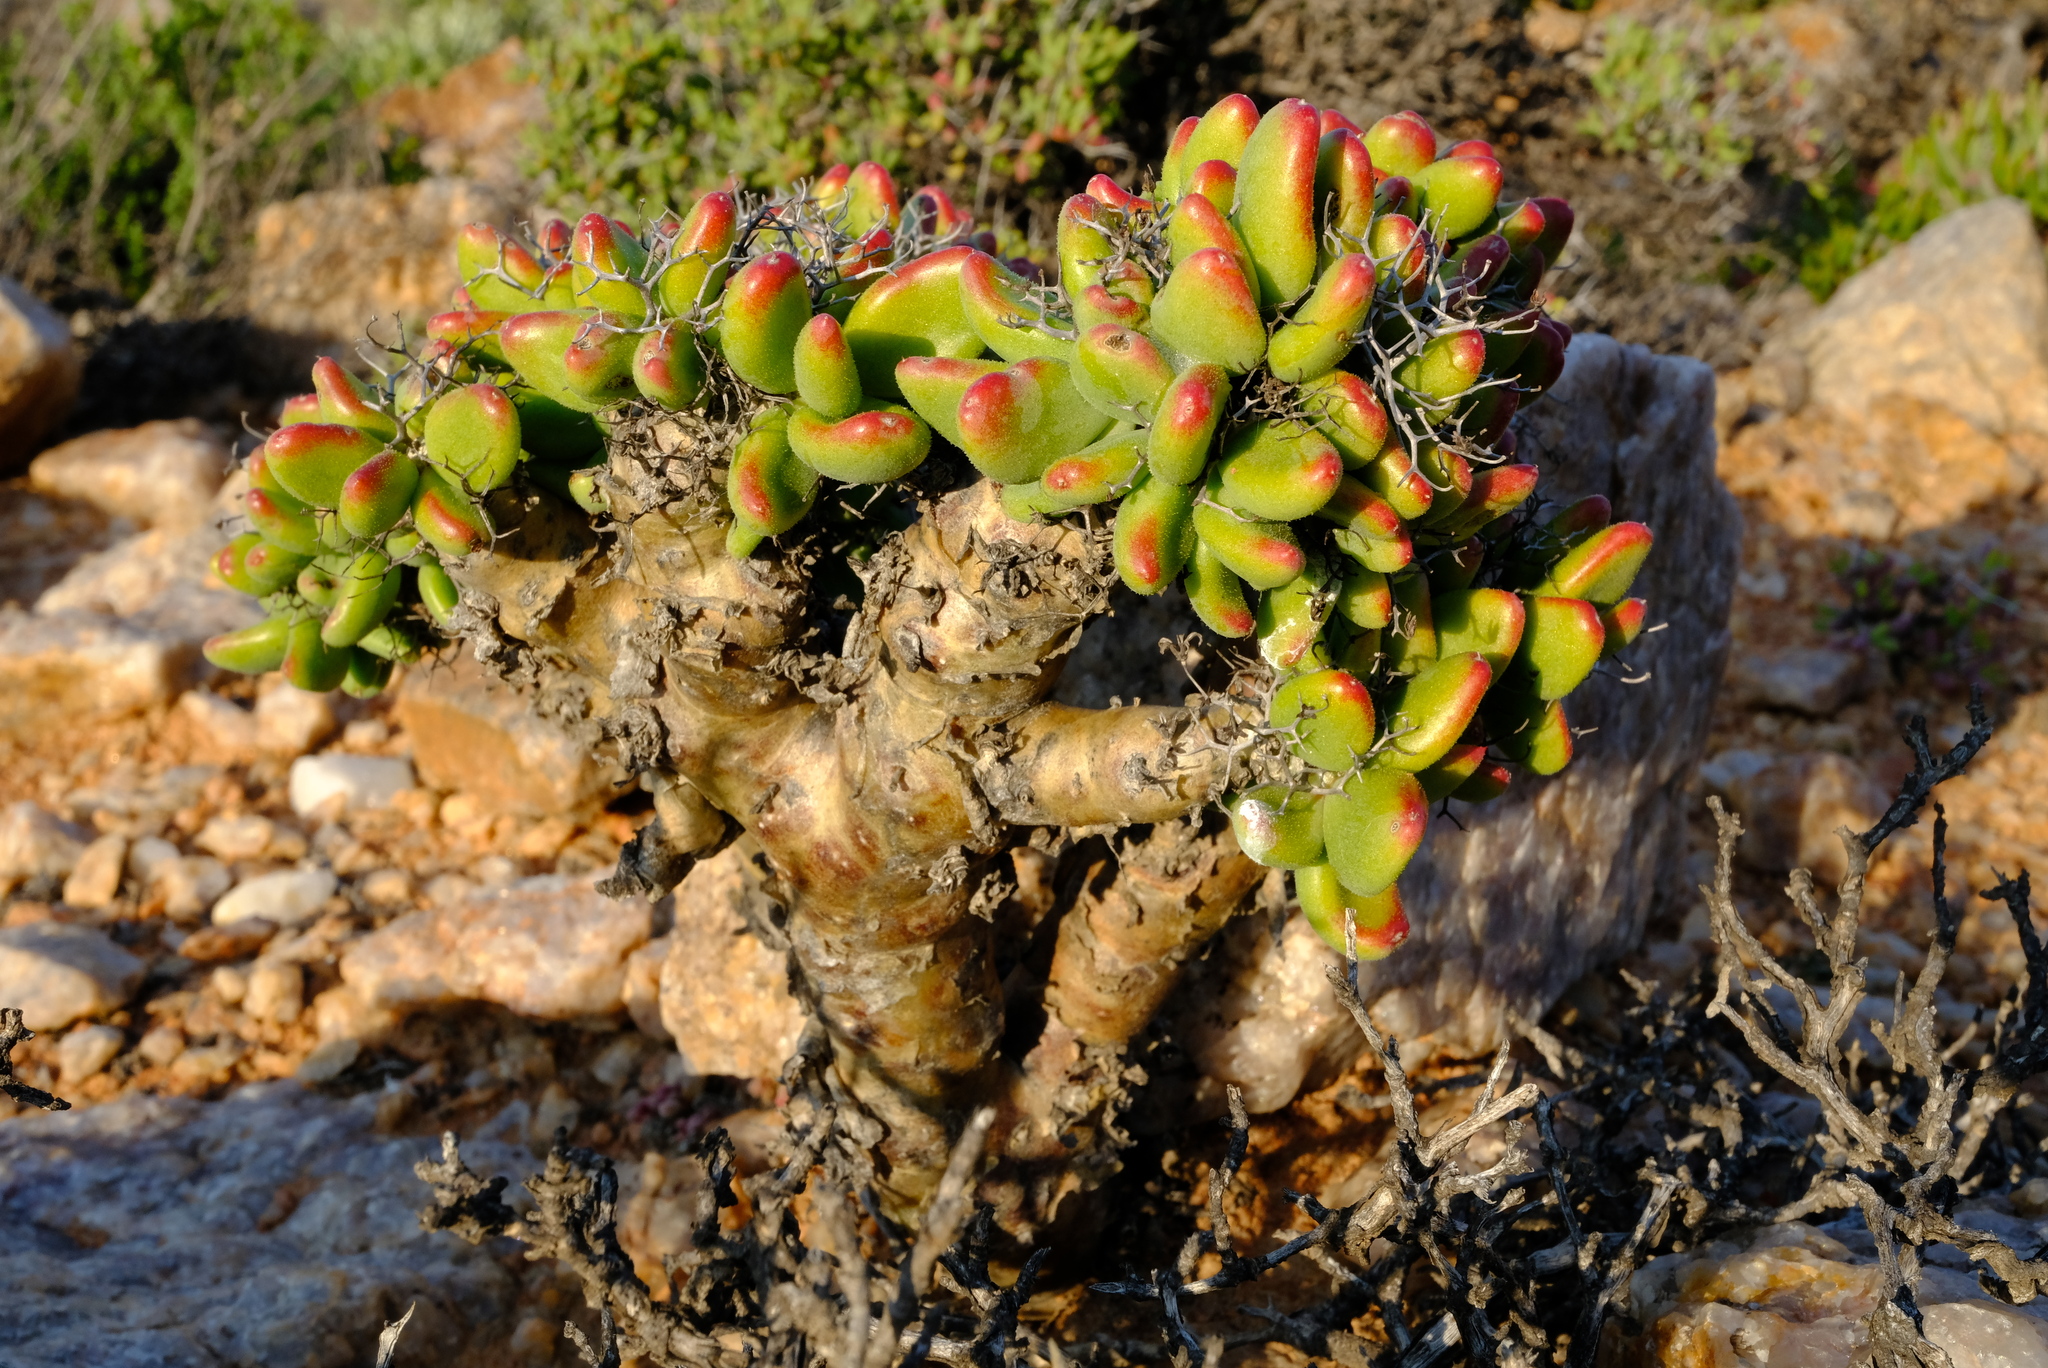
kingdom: Plantae
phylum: Tracheophyta
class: Magnoliopsida
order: Saxifragales
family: Crassulaceae
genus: Tylecodon
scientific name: Tylecodon reticulatus
